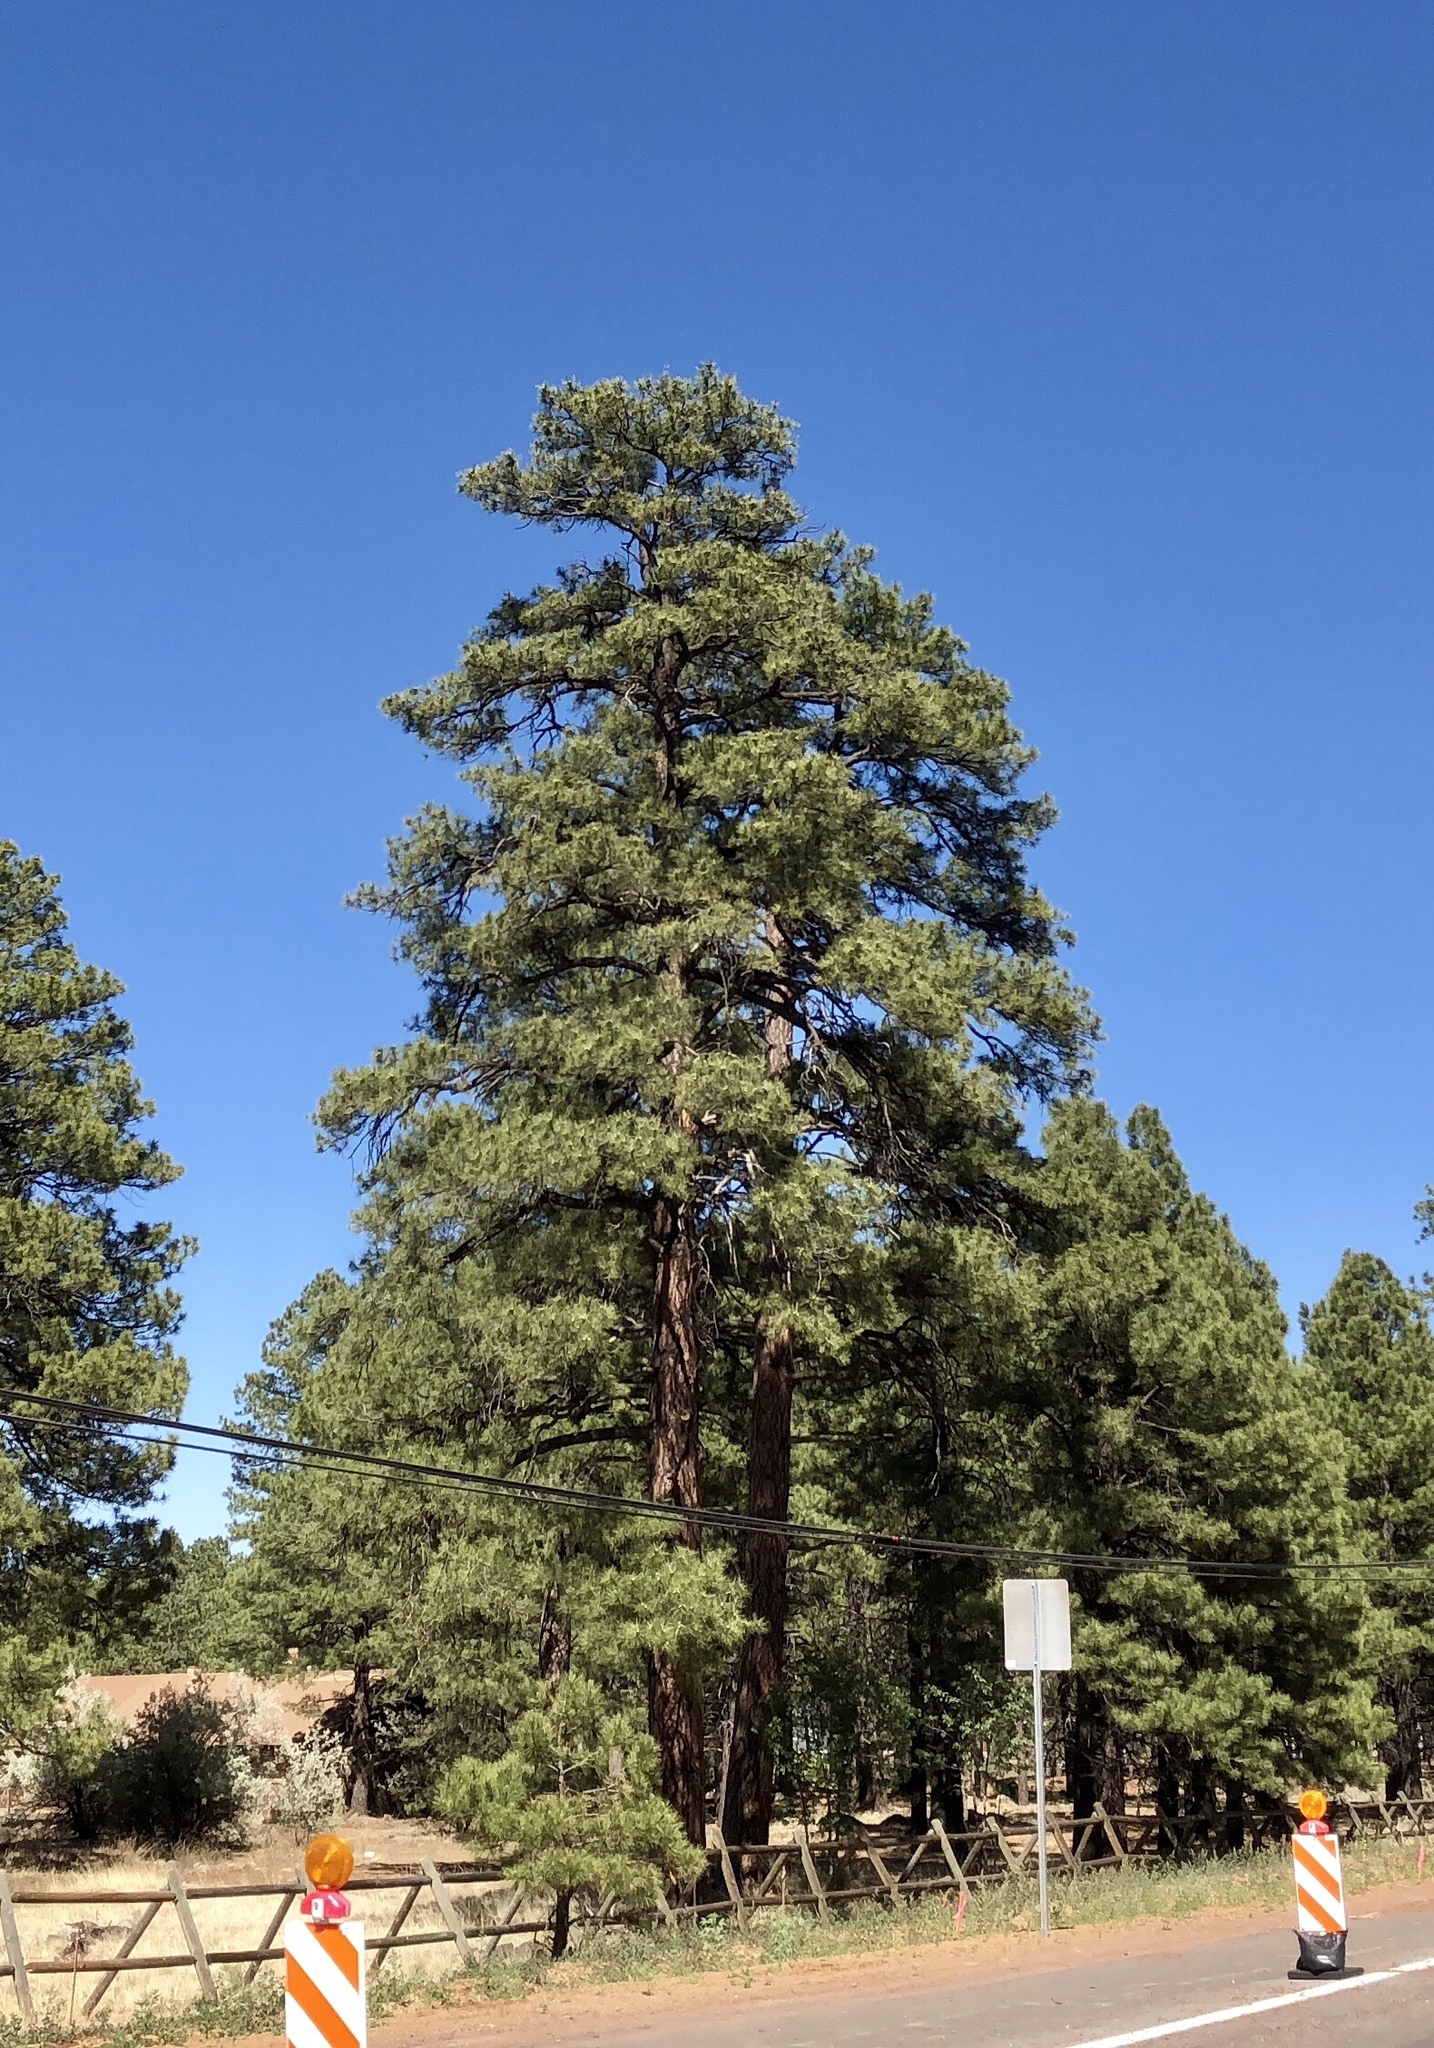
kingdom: Plantae
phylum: Tracheophyta
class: Pinopsida
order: Pinales
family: Pinaceae
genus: Pinus
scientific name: Pinus ponderosa
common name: Western yellow-pine
